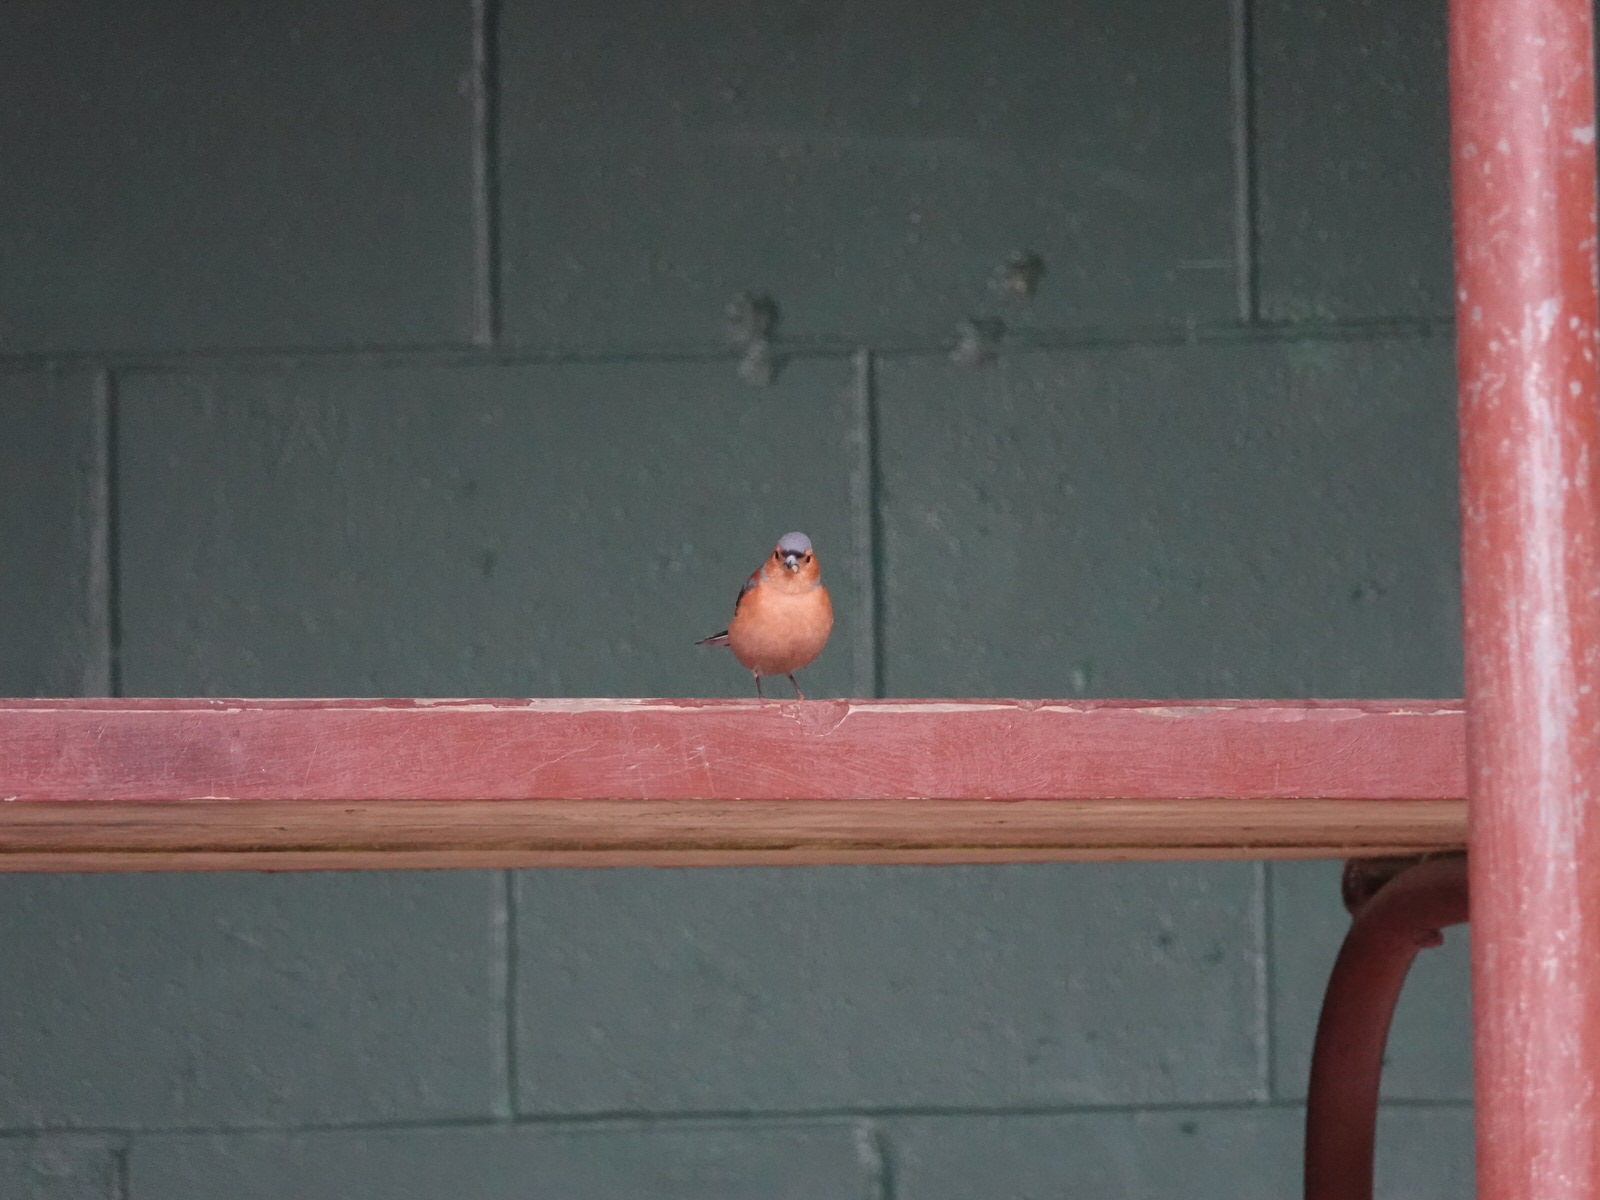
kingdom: Animalia
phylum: Chordata
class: Aves
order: Passeriformes
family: Fringillidae
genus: Fringilla
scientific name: Fringilla coelebs
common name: Common chaffinch
